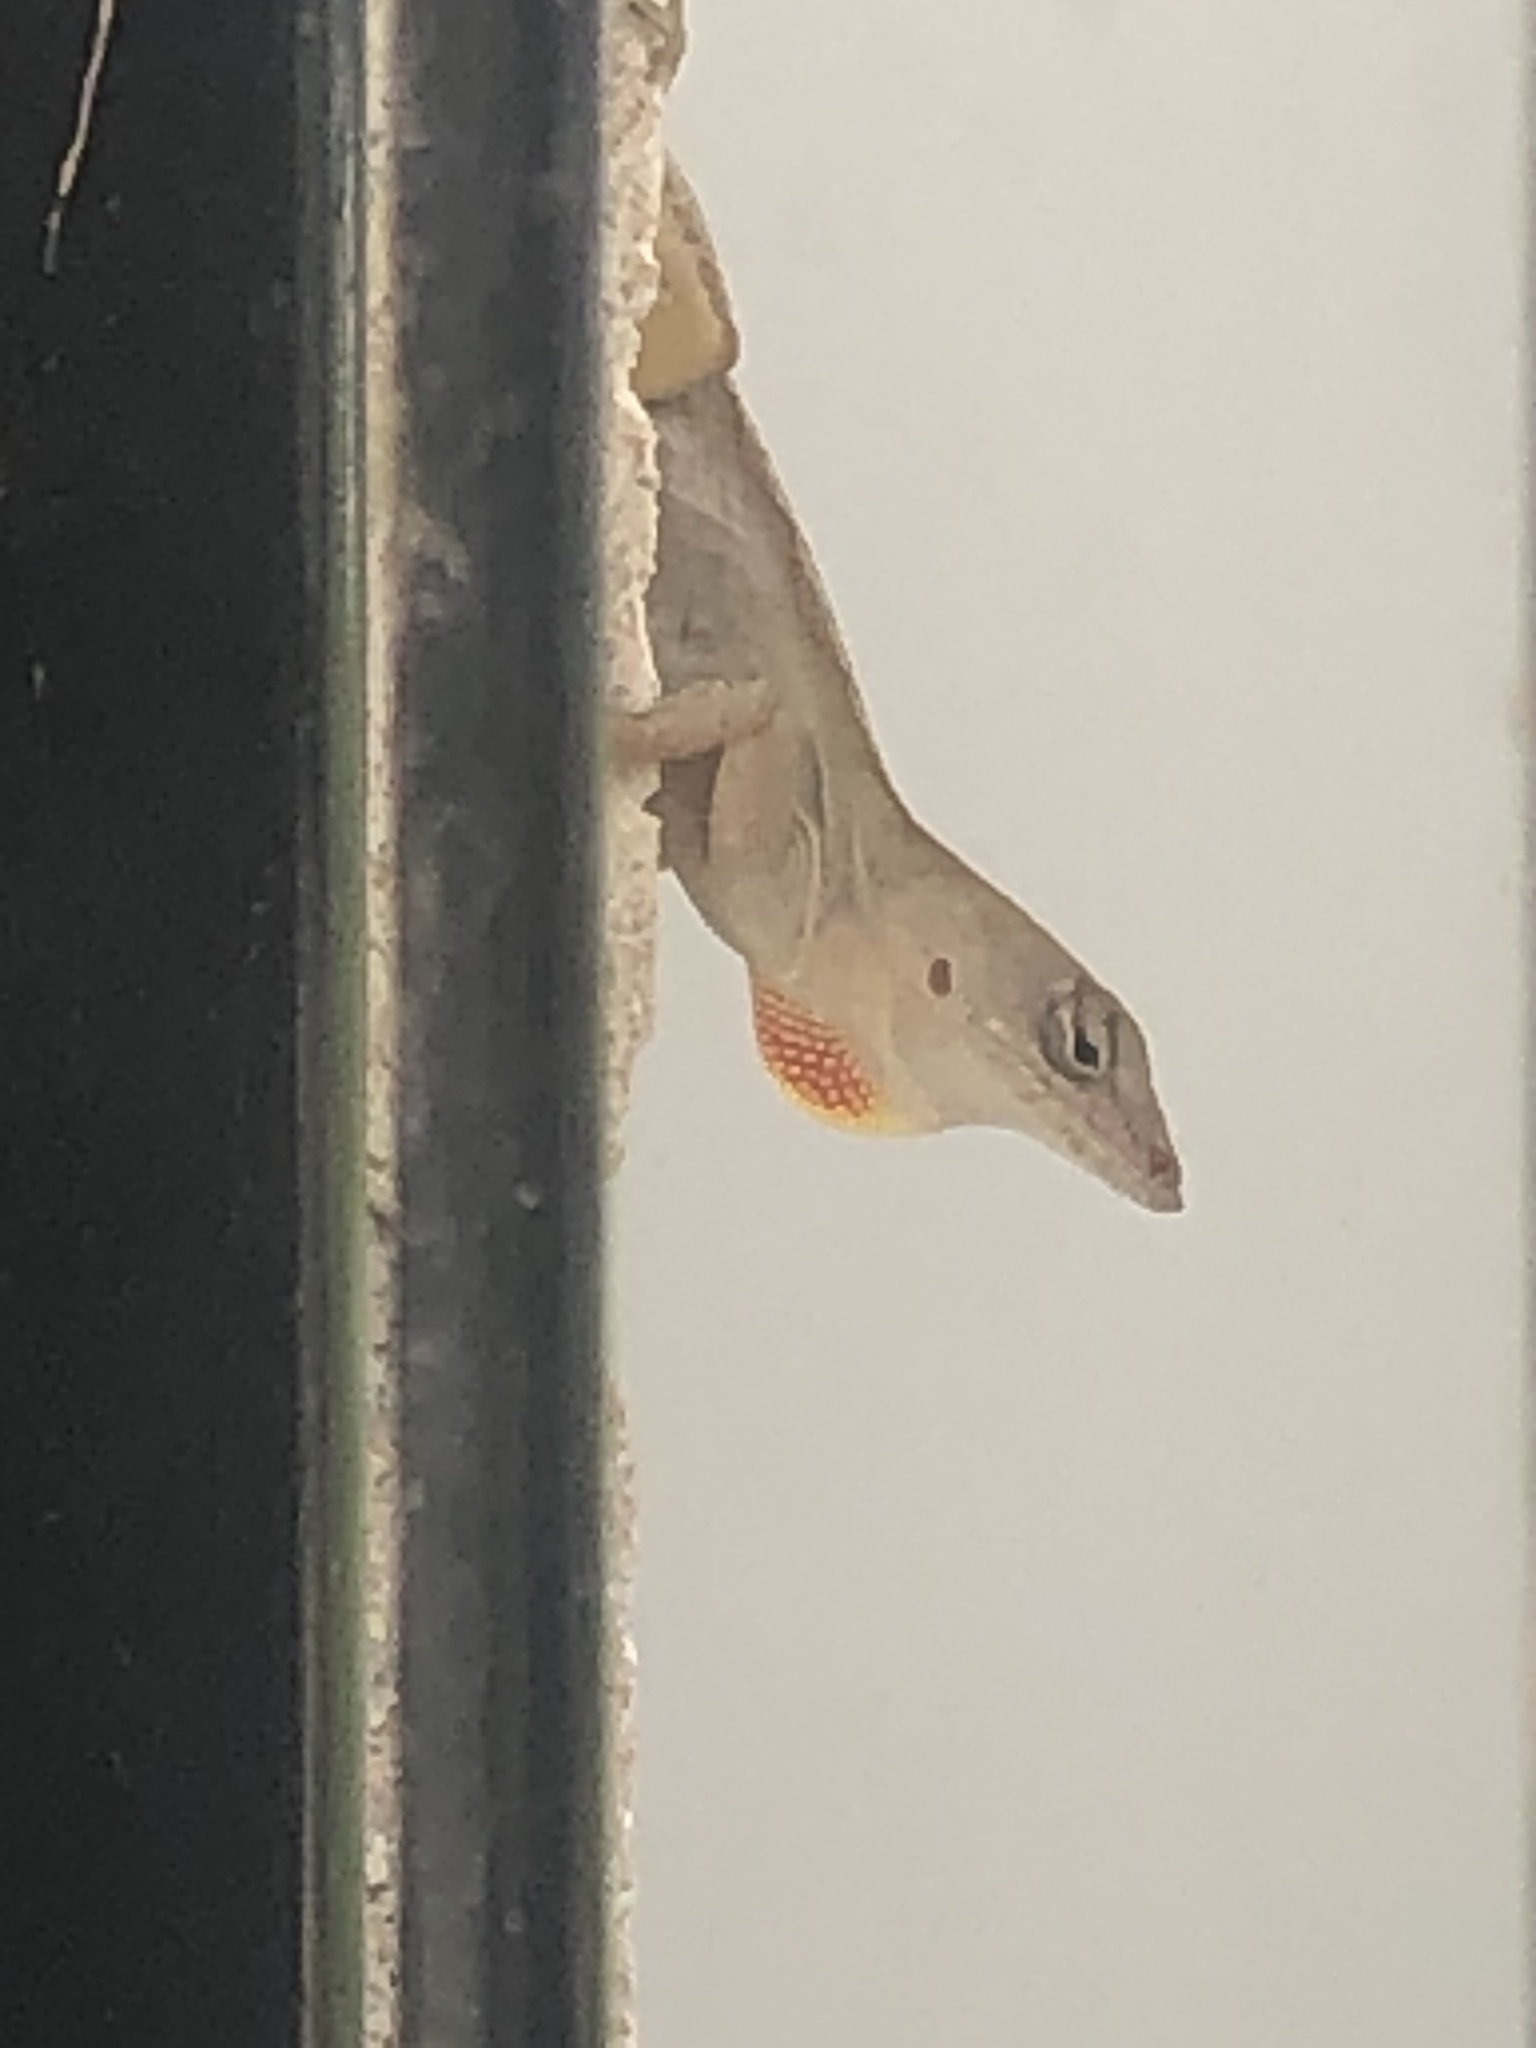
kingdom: Animalia
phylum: Chordata
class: Squamata
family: Dactyloidae
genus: Anolis
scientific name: Anolis sagrei
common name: Brown anole
